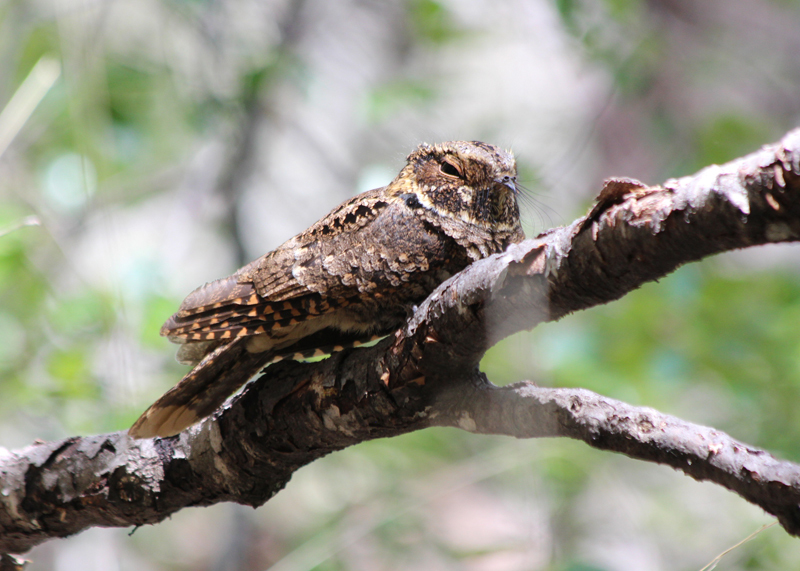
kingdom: Animalia
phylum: Chordata
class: Aves
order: Caprimulgiformes
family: Caprimulgidae
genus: Antrostomus
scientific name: Antrostomus arizonae
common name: Mexican whip-poor-will
